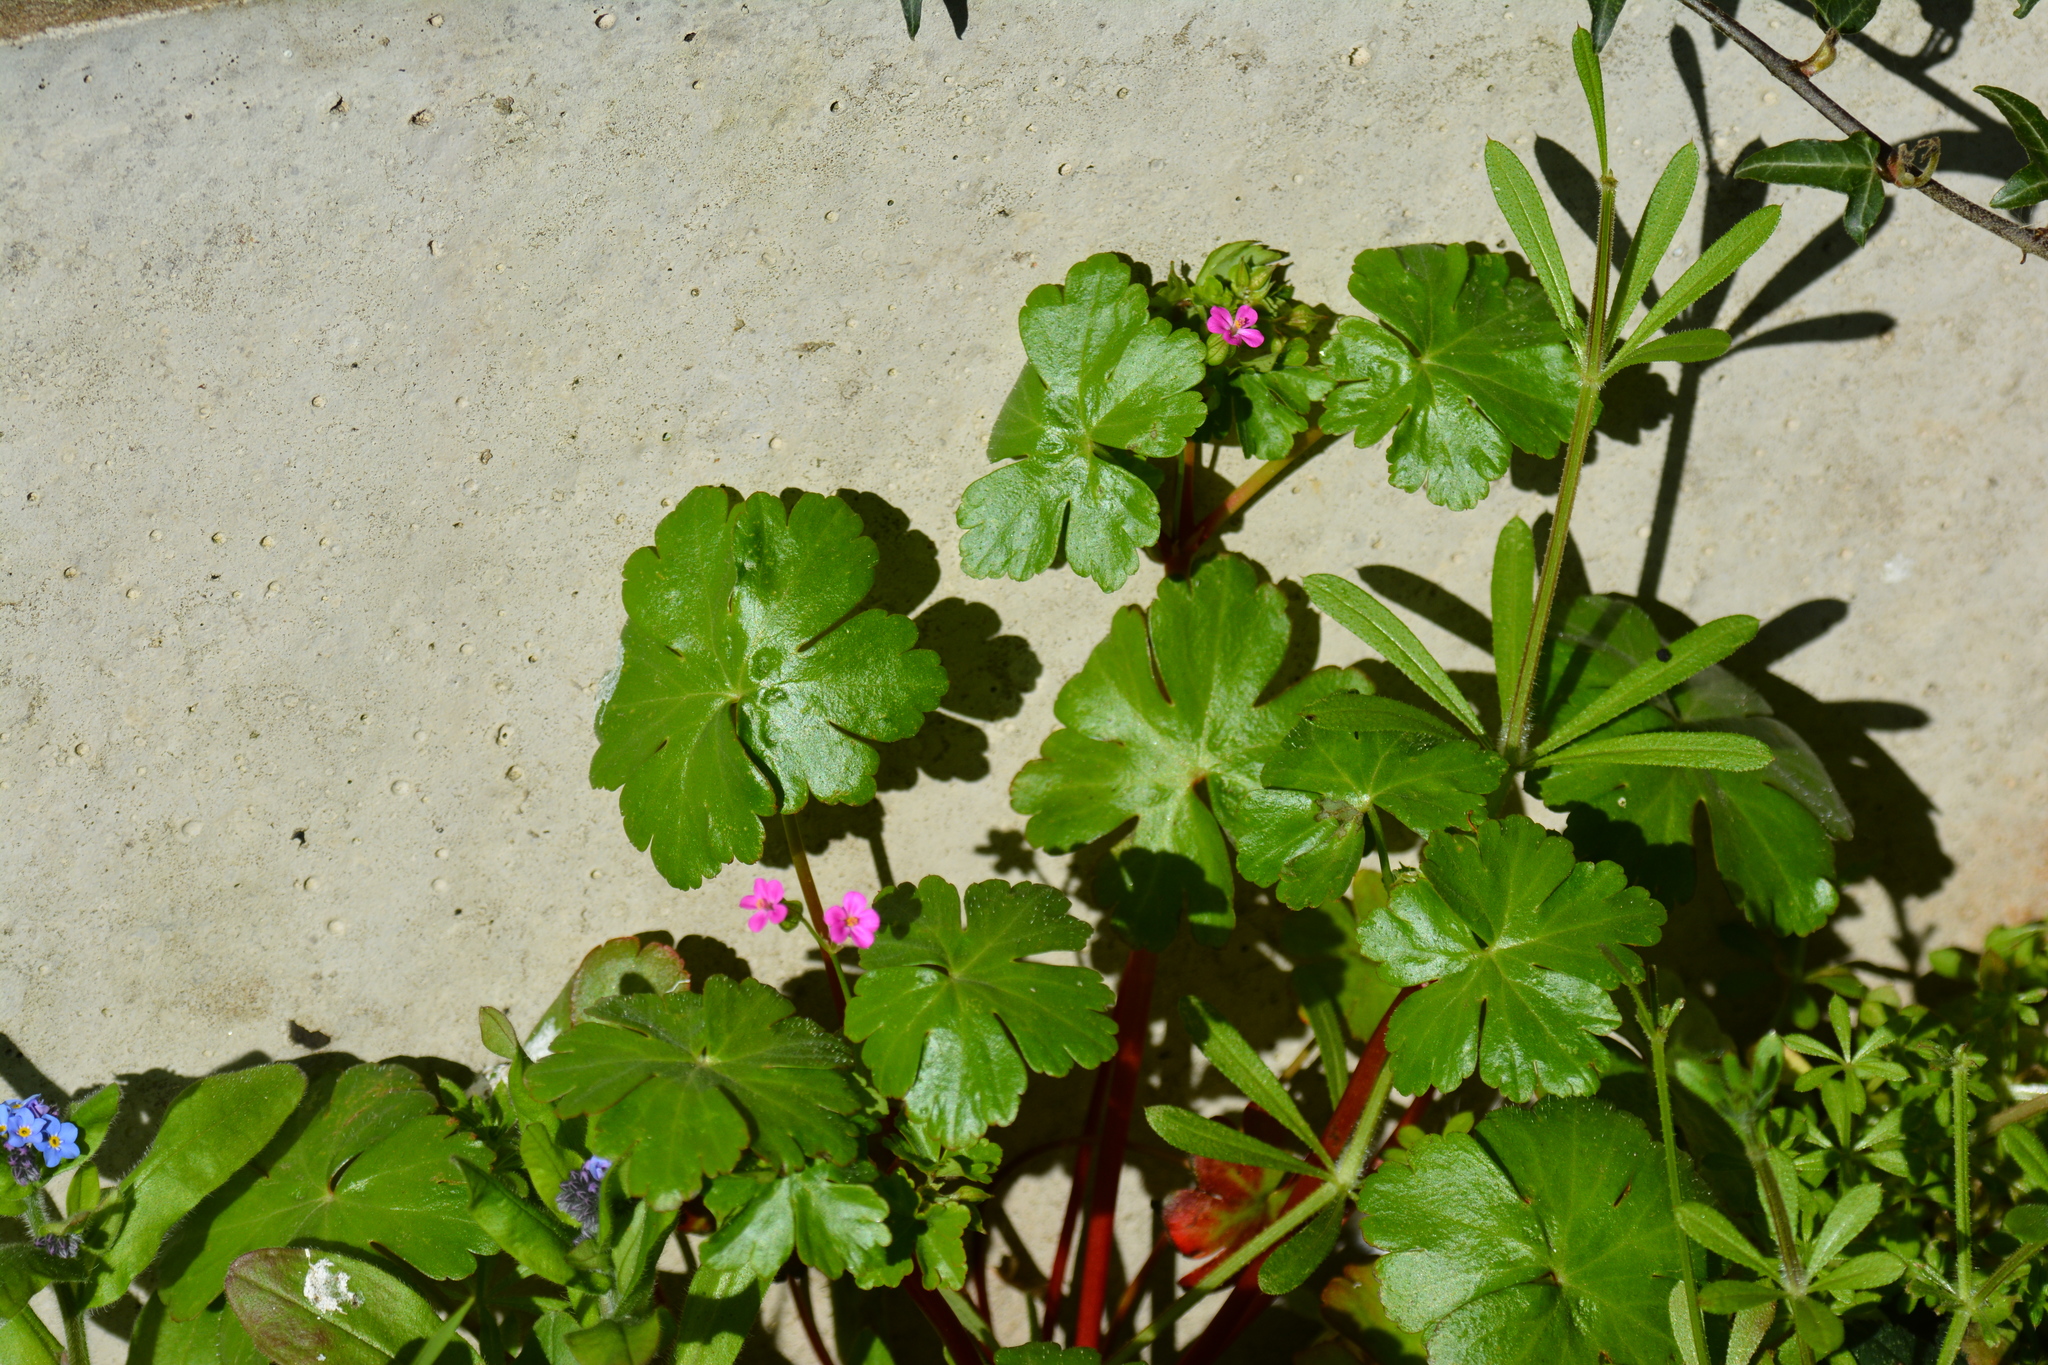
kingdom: Plantae
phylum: Tracheophyta
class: Magnoliopsida
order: Geraniales
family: Geraniaceae
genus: Geranium
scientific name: Geranium lucidum
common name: Shining crane's-bill
